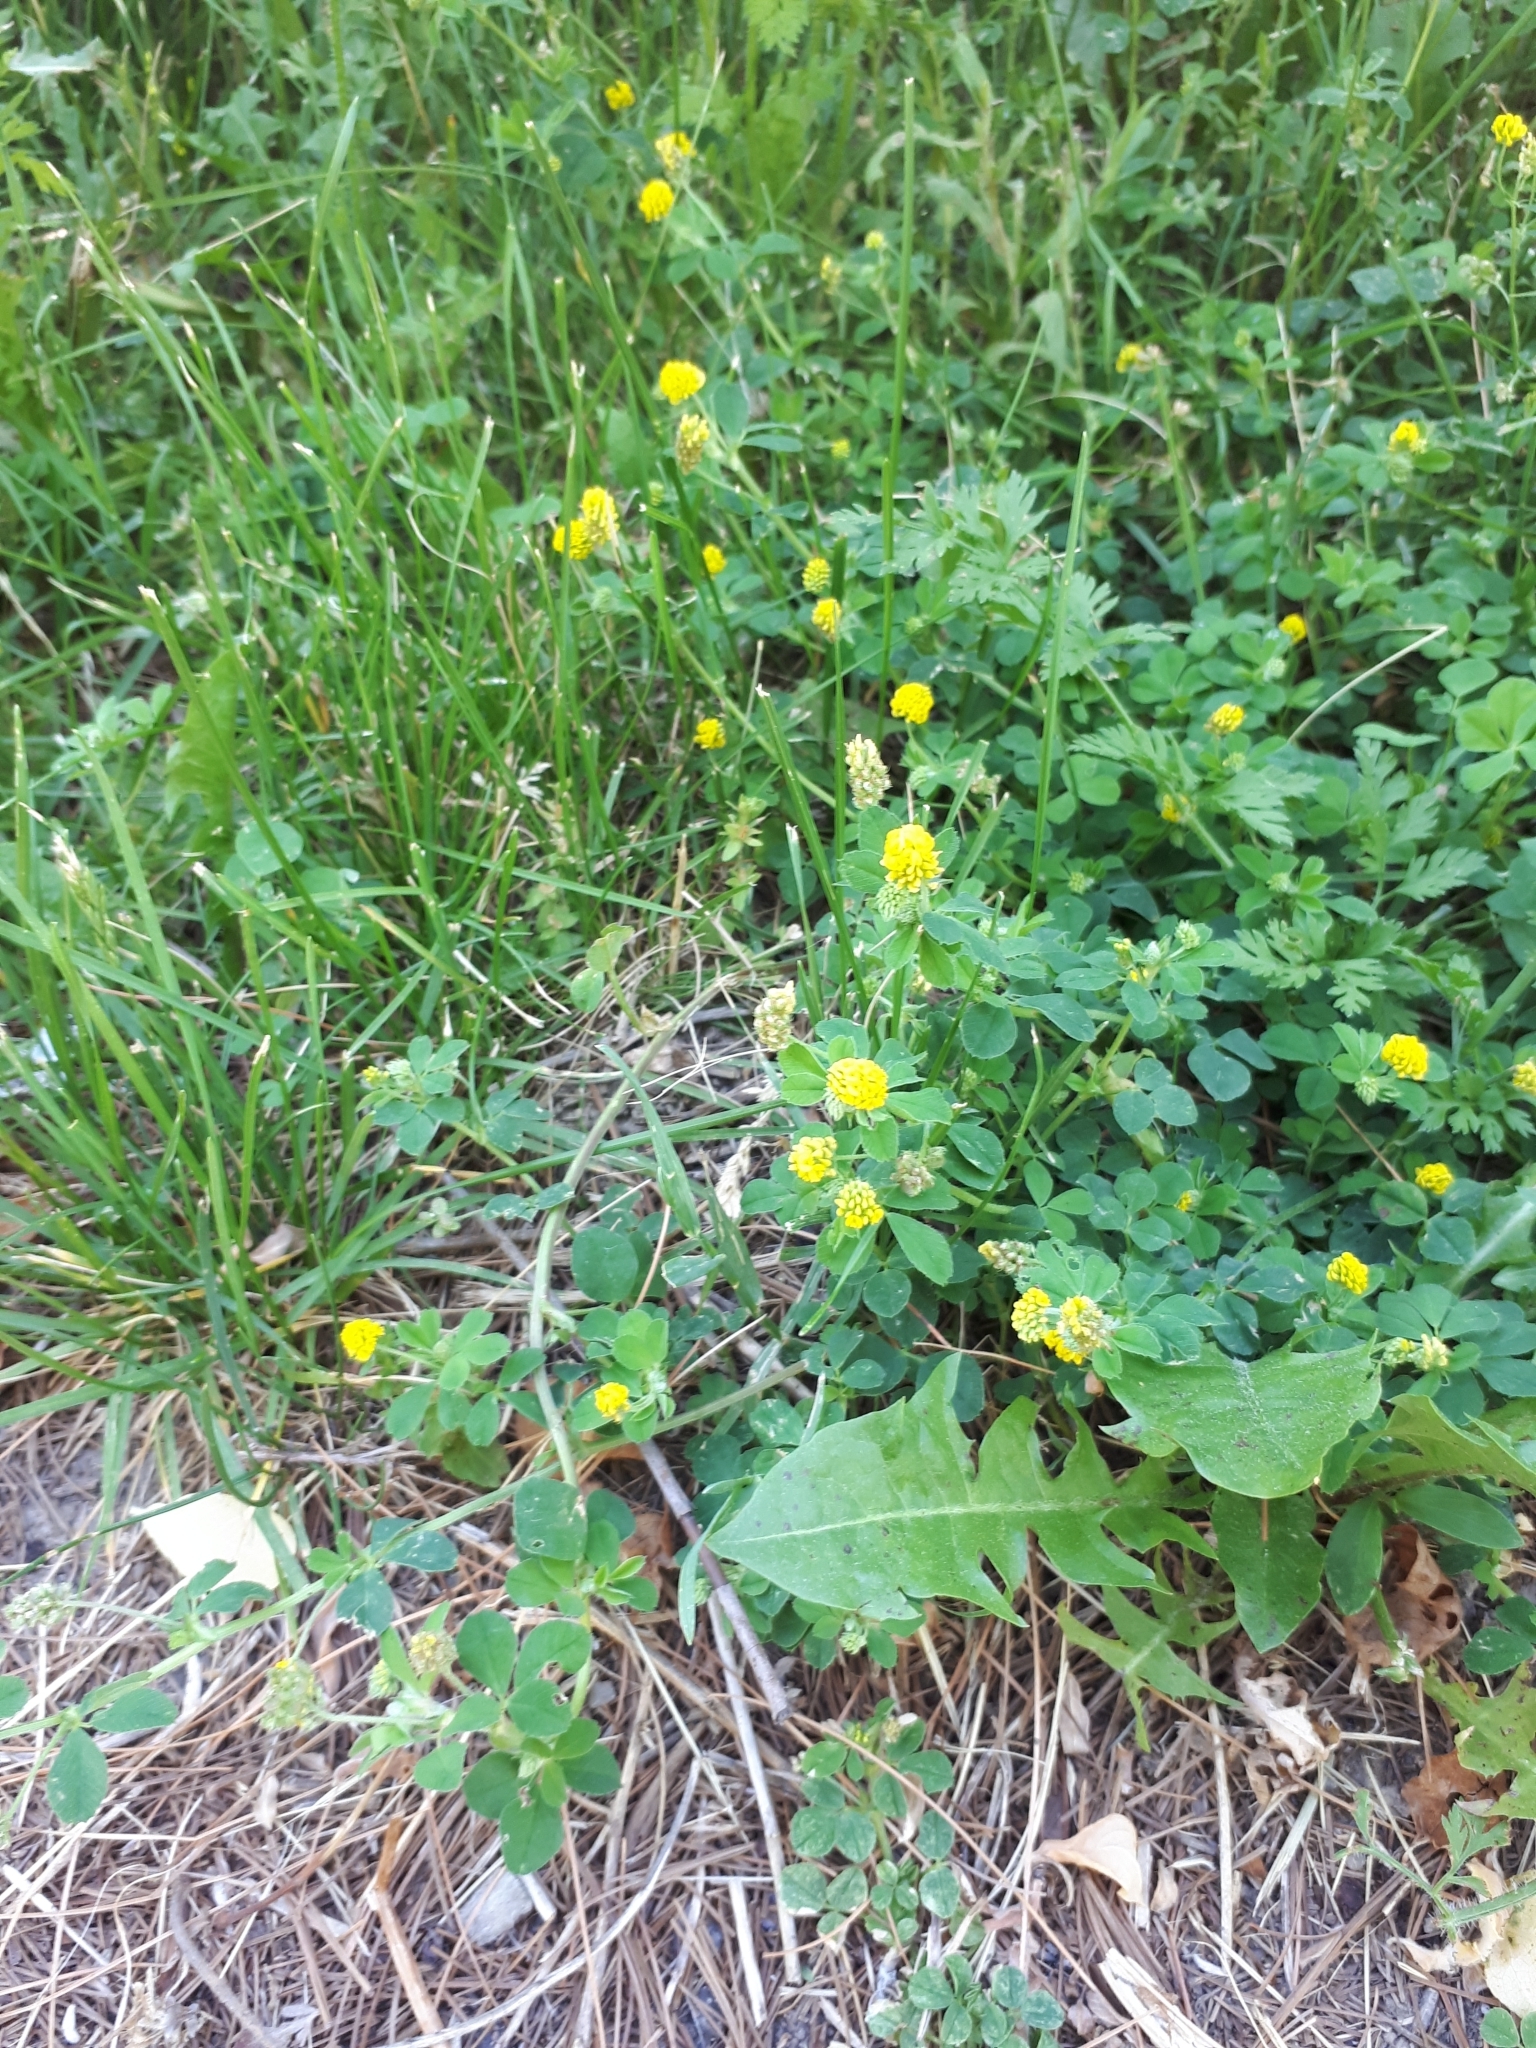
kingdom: Plantae
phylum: Tracheophyta
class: Magnoliopsida
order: Fabales
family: Fabaceae
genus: Medicago
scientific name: Medicago lupulina
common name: Black medick
